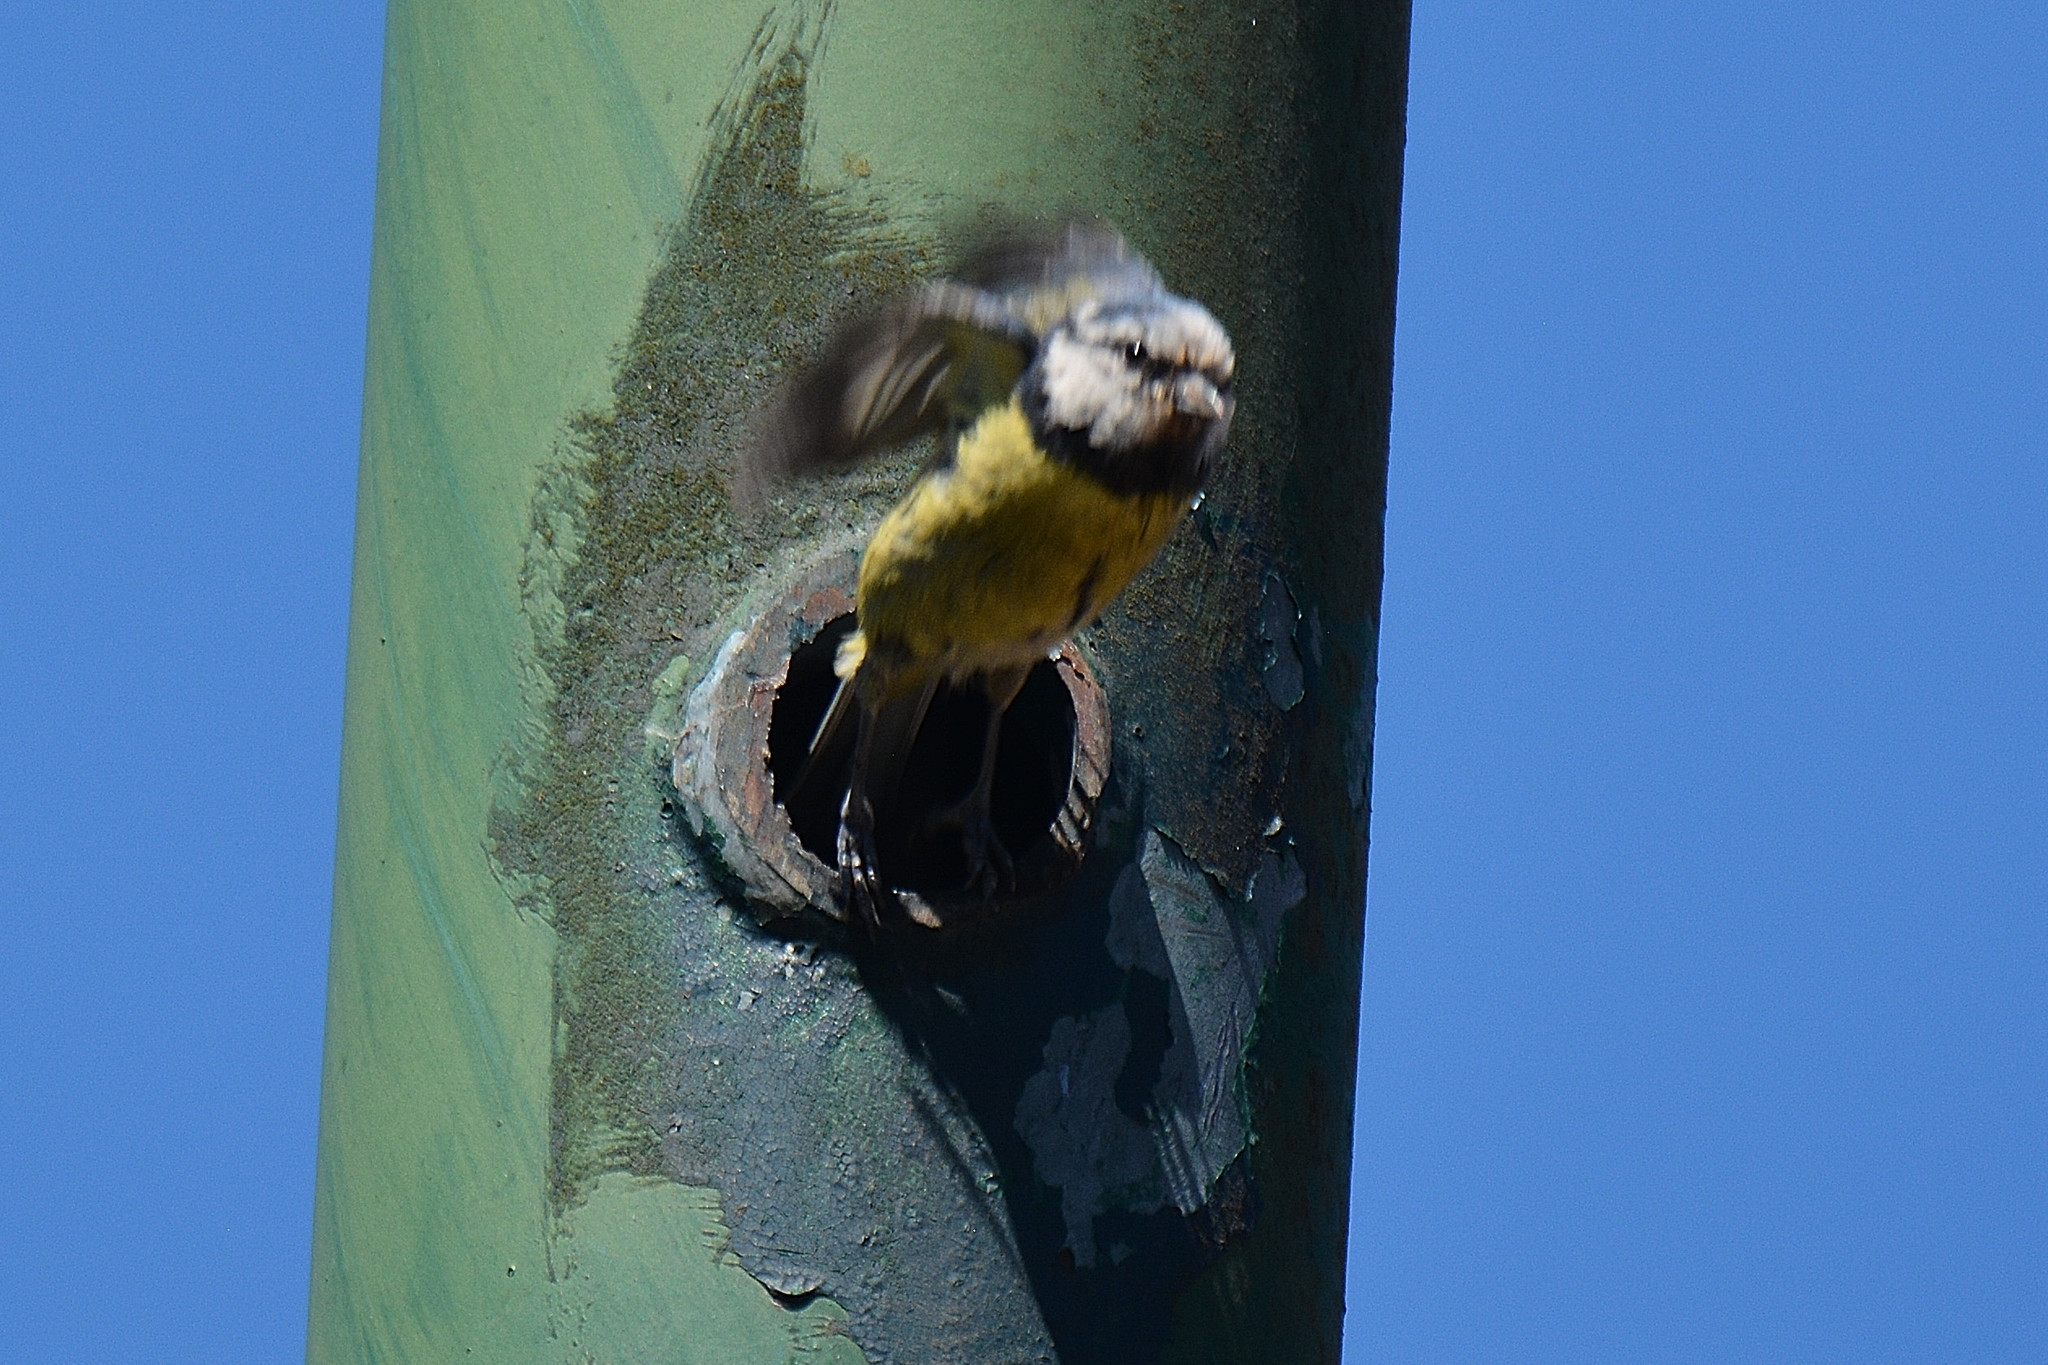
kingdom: Animalia
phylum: Chordata
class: Aves
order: Passeriformes
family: Paridae
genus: Cyanistes
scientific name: Cyanistes caeruleus
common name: Eurasian blue tit
